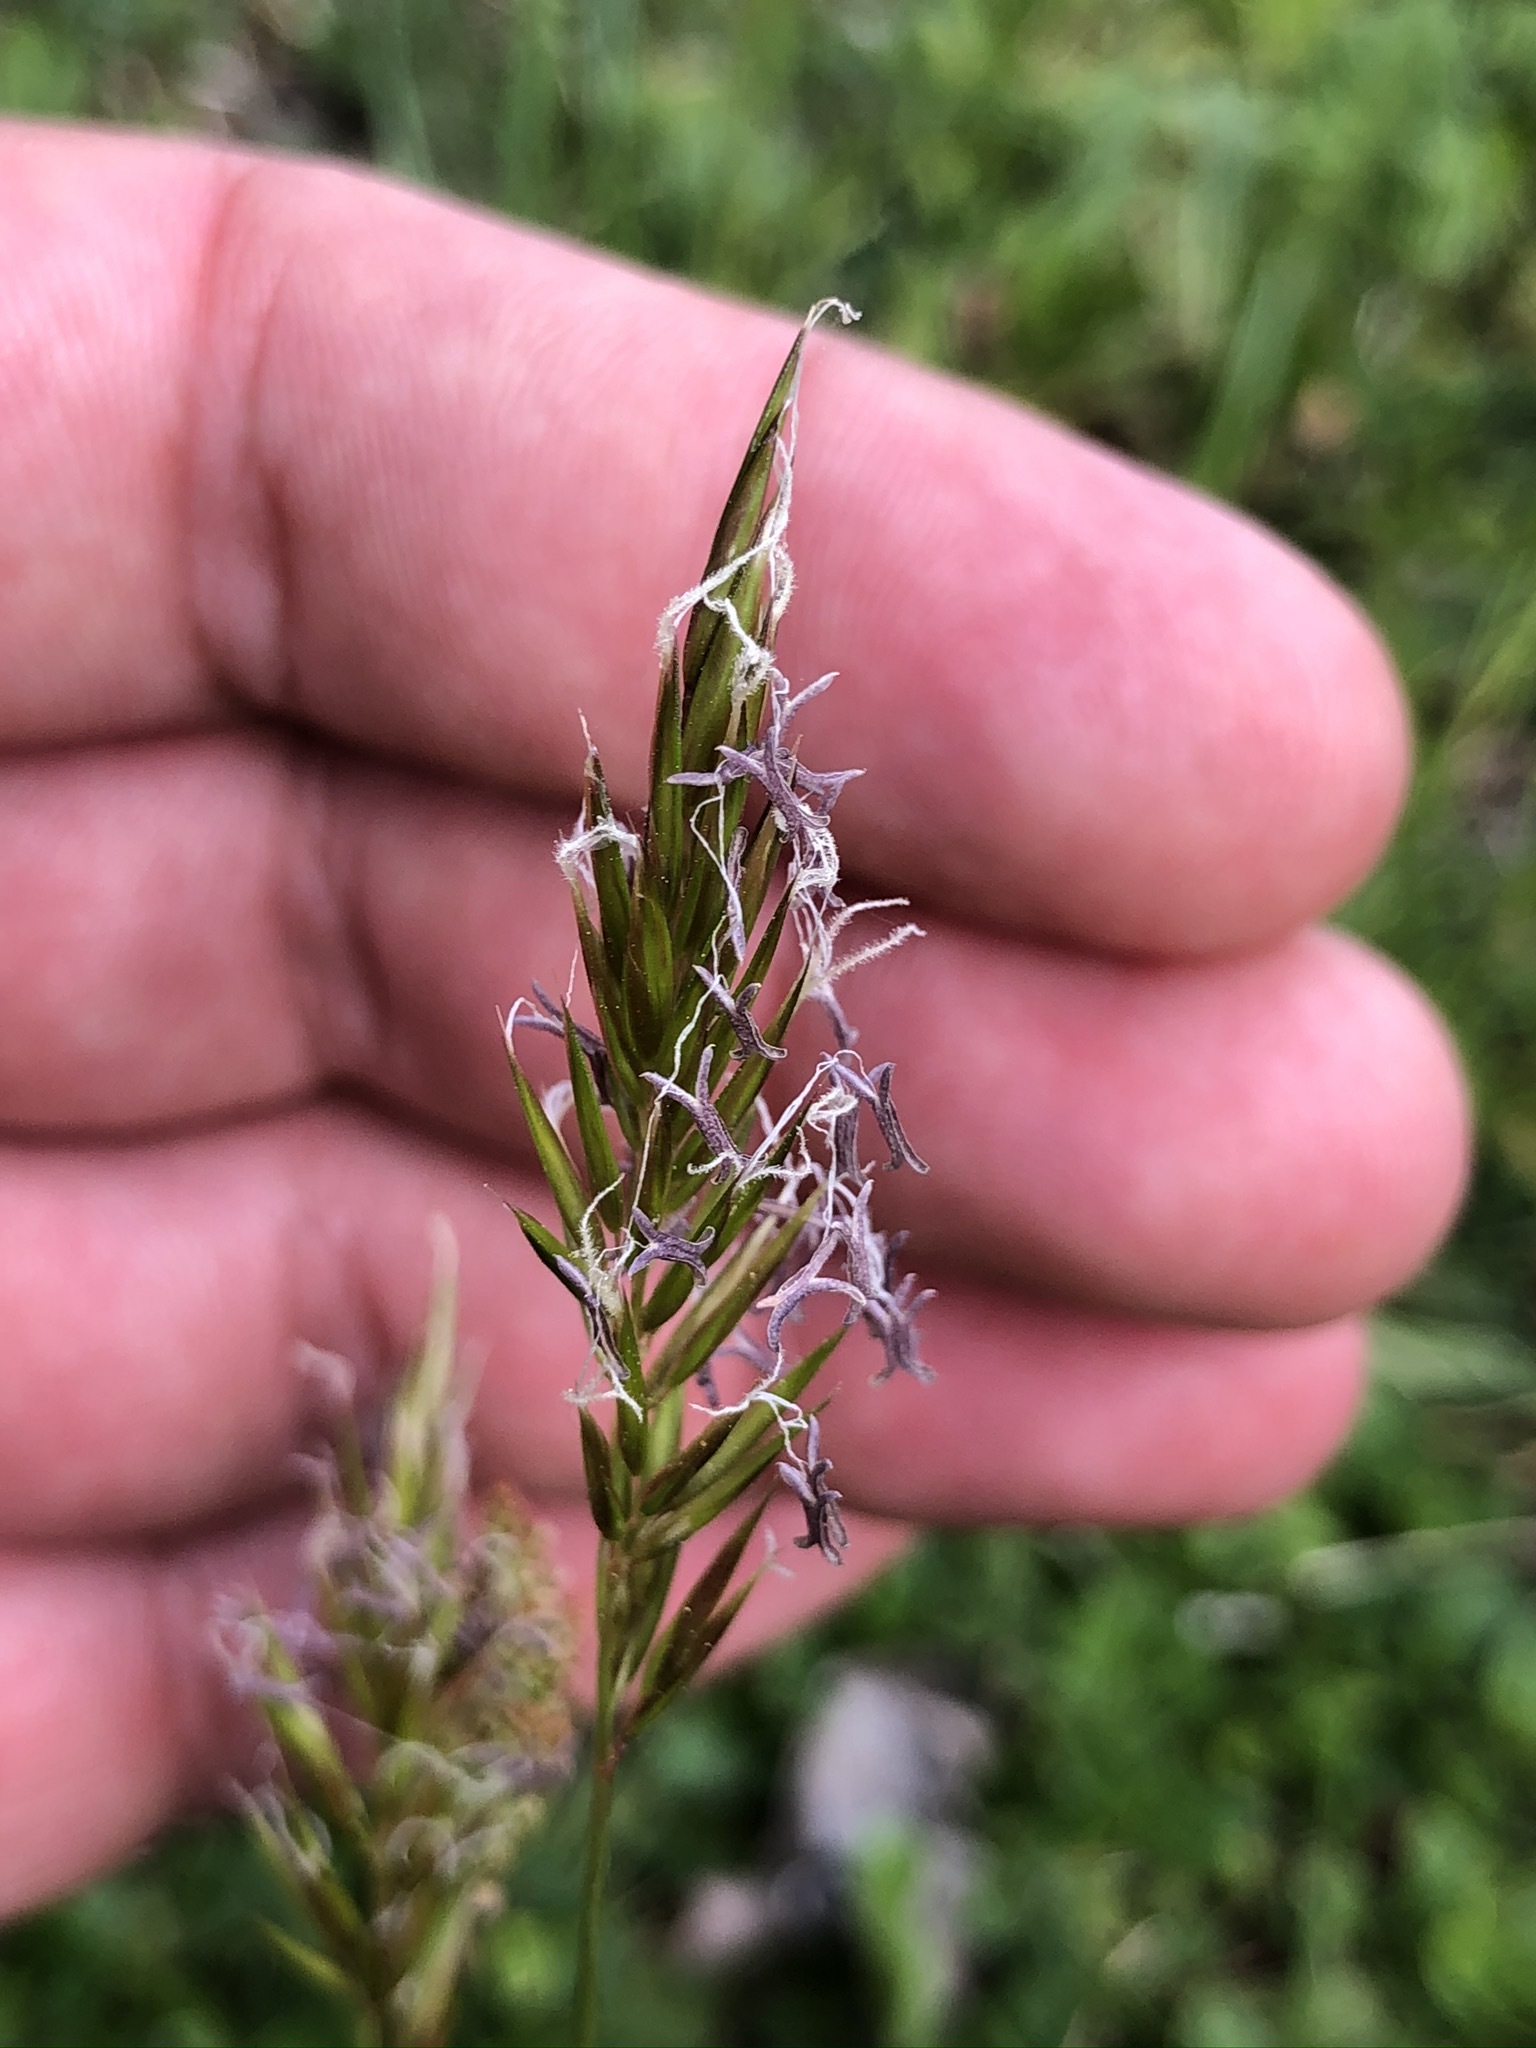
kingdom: Plantae
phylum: Tracheophyta
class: Liliopsida
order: Poales
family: Poaceae
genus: Anthoxanthum
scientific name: Anthoxanthum odoratum
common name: Sweet vernalgrass
